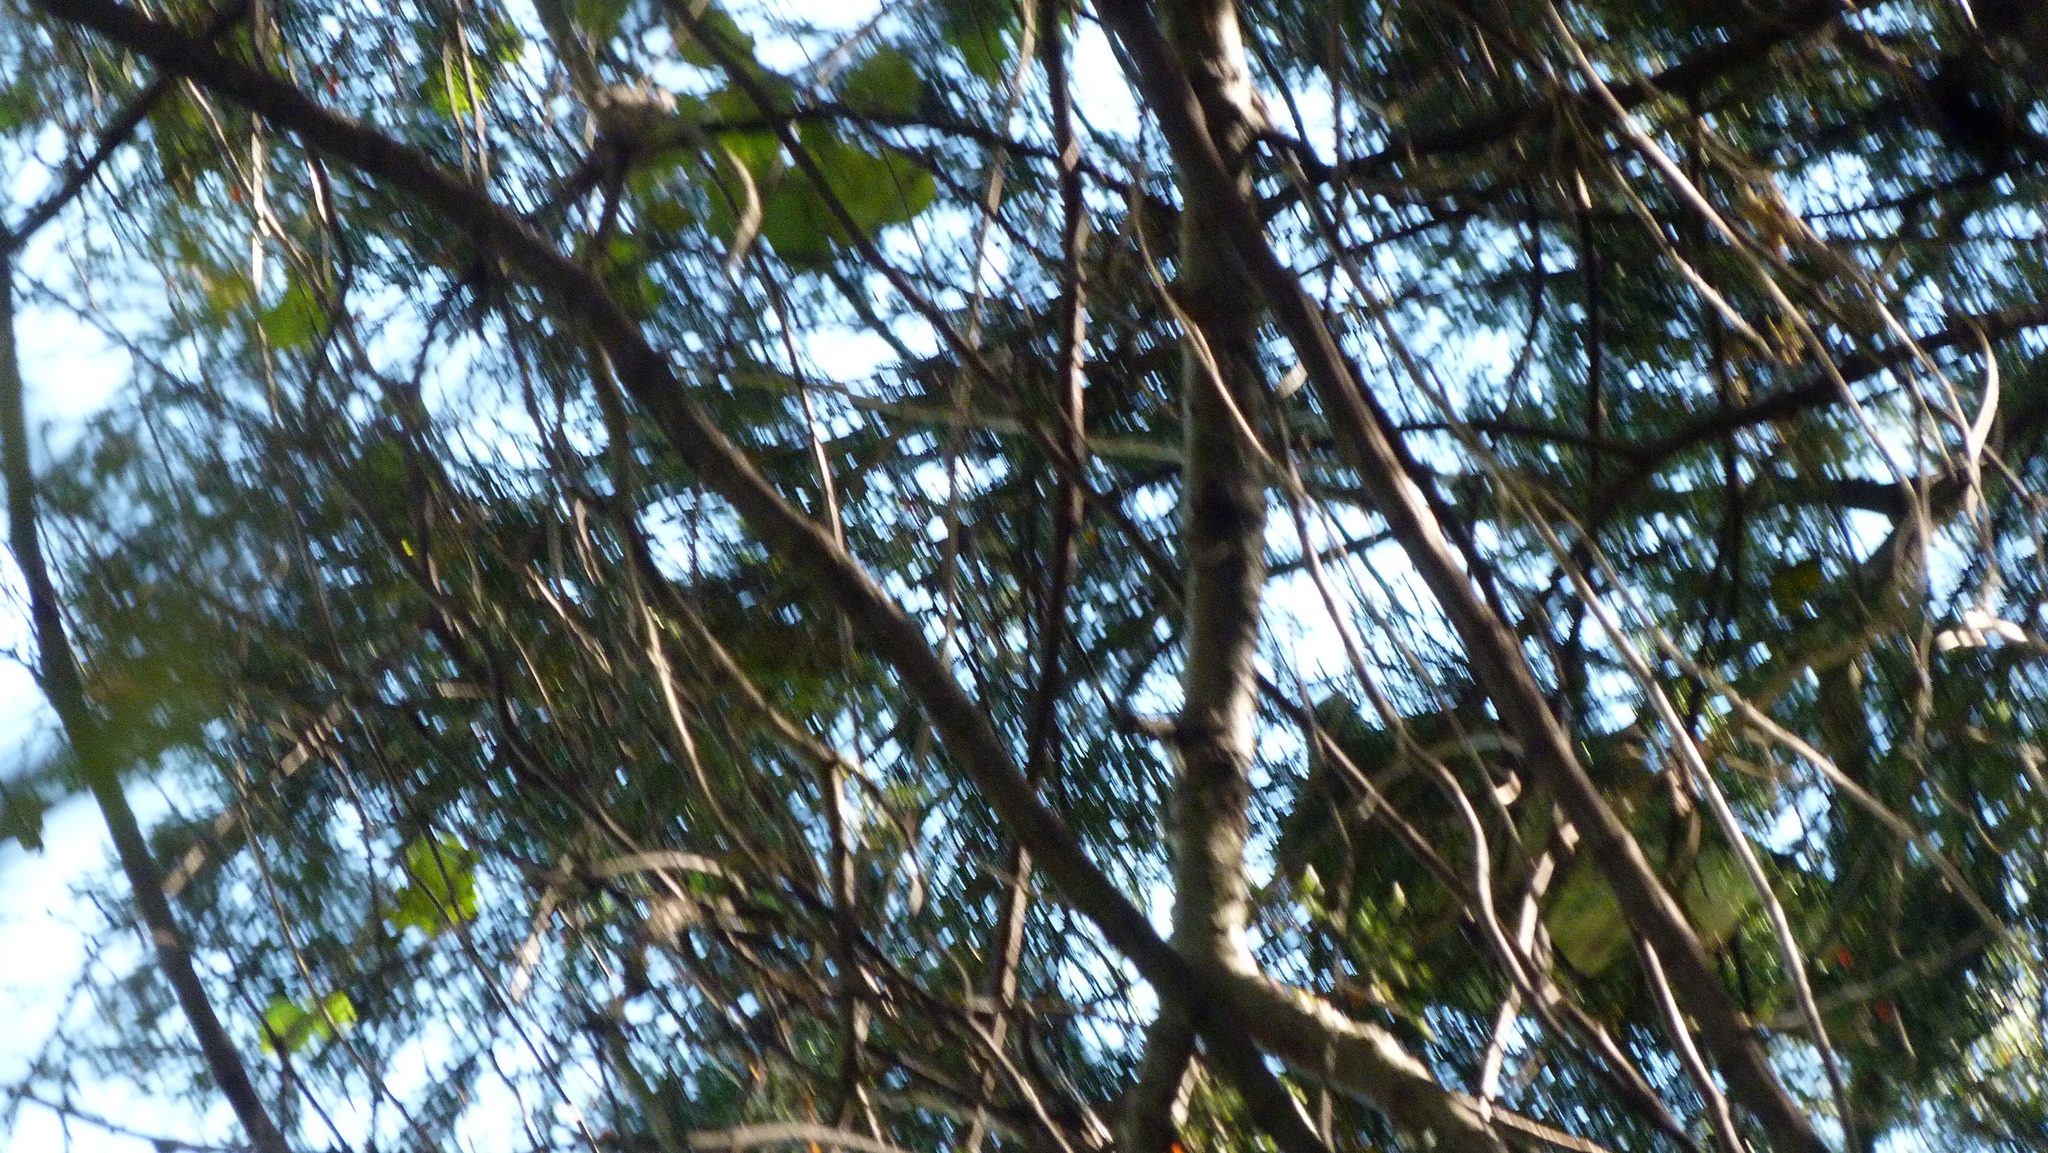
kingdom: Animalia
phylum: Chordata
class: Aves
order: Columbiformes
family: Columbidae
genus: Hemiphaga
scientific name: Hemiphaga novaeseelandiae
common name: New zealand pigeon
